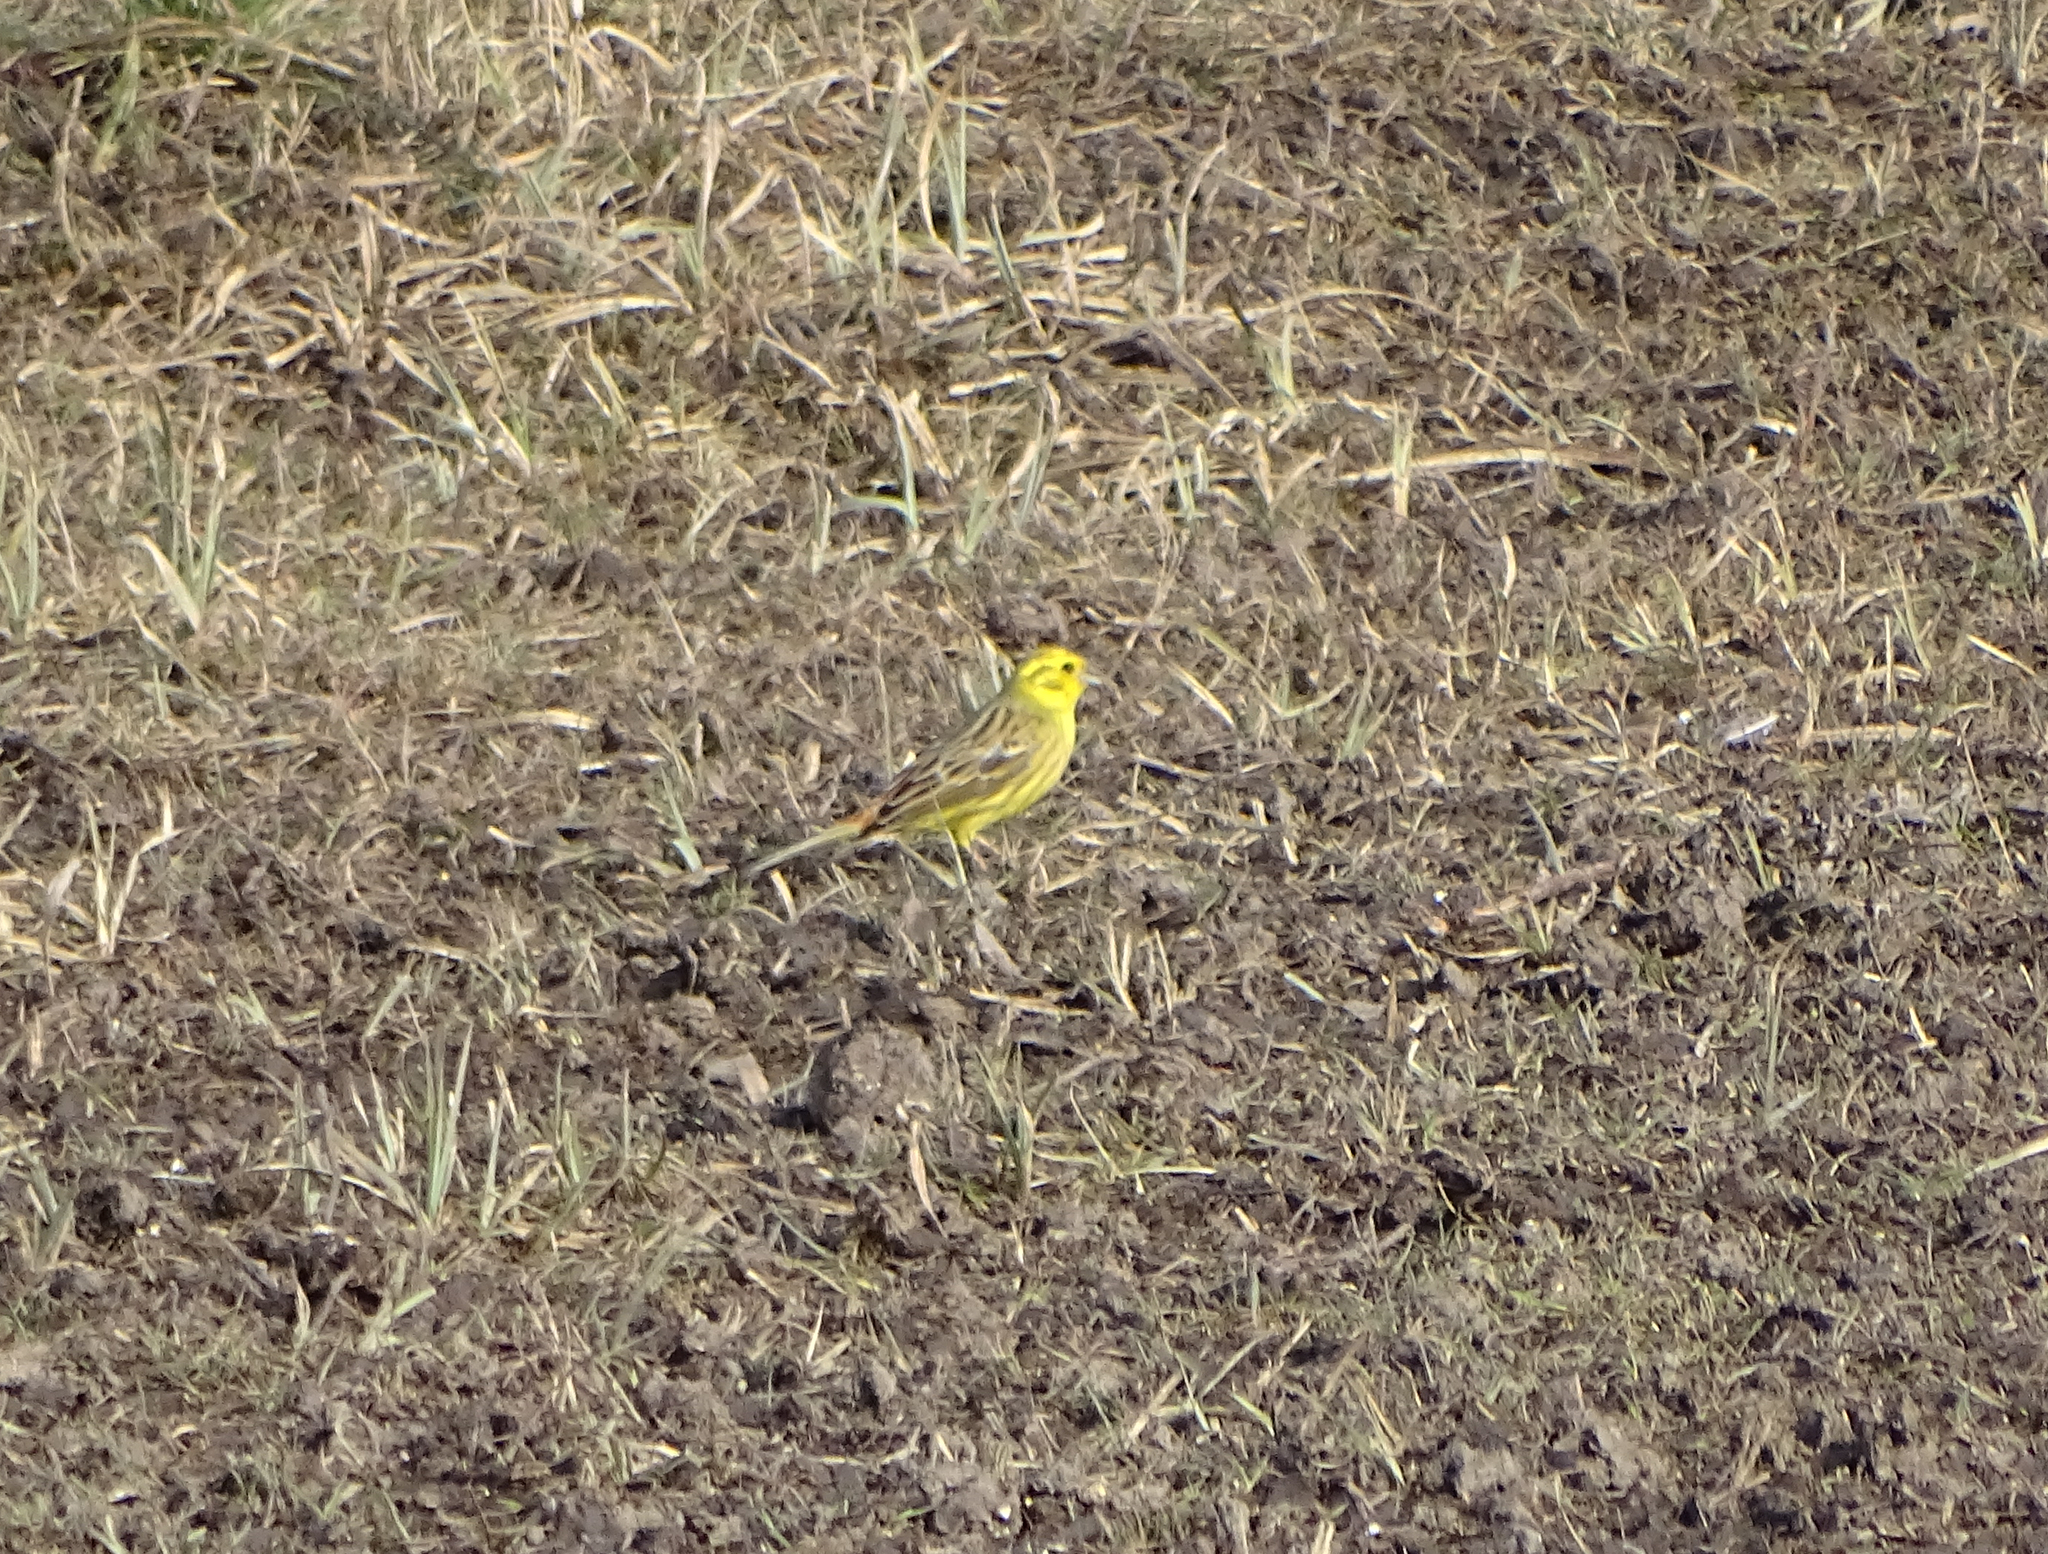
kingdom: Animalia
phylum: Chordata
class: Aves
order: Passeriformes
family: Emberizidae
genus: Emberiza
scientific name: Emberiza citrinella
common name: Yellowhammer
